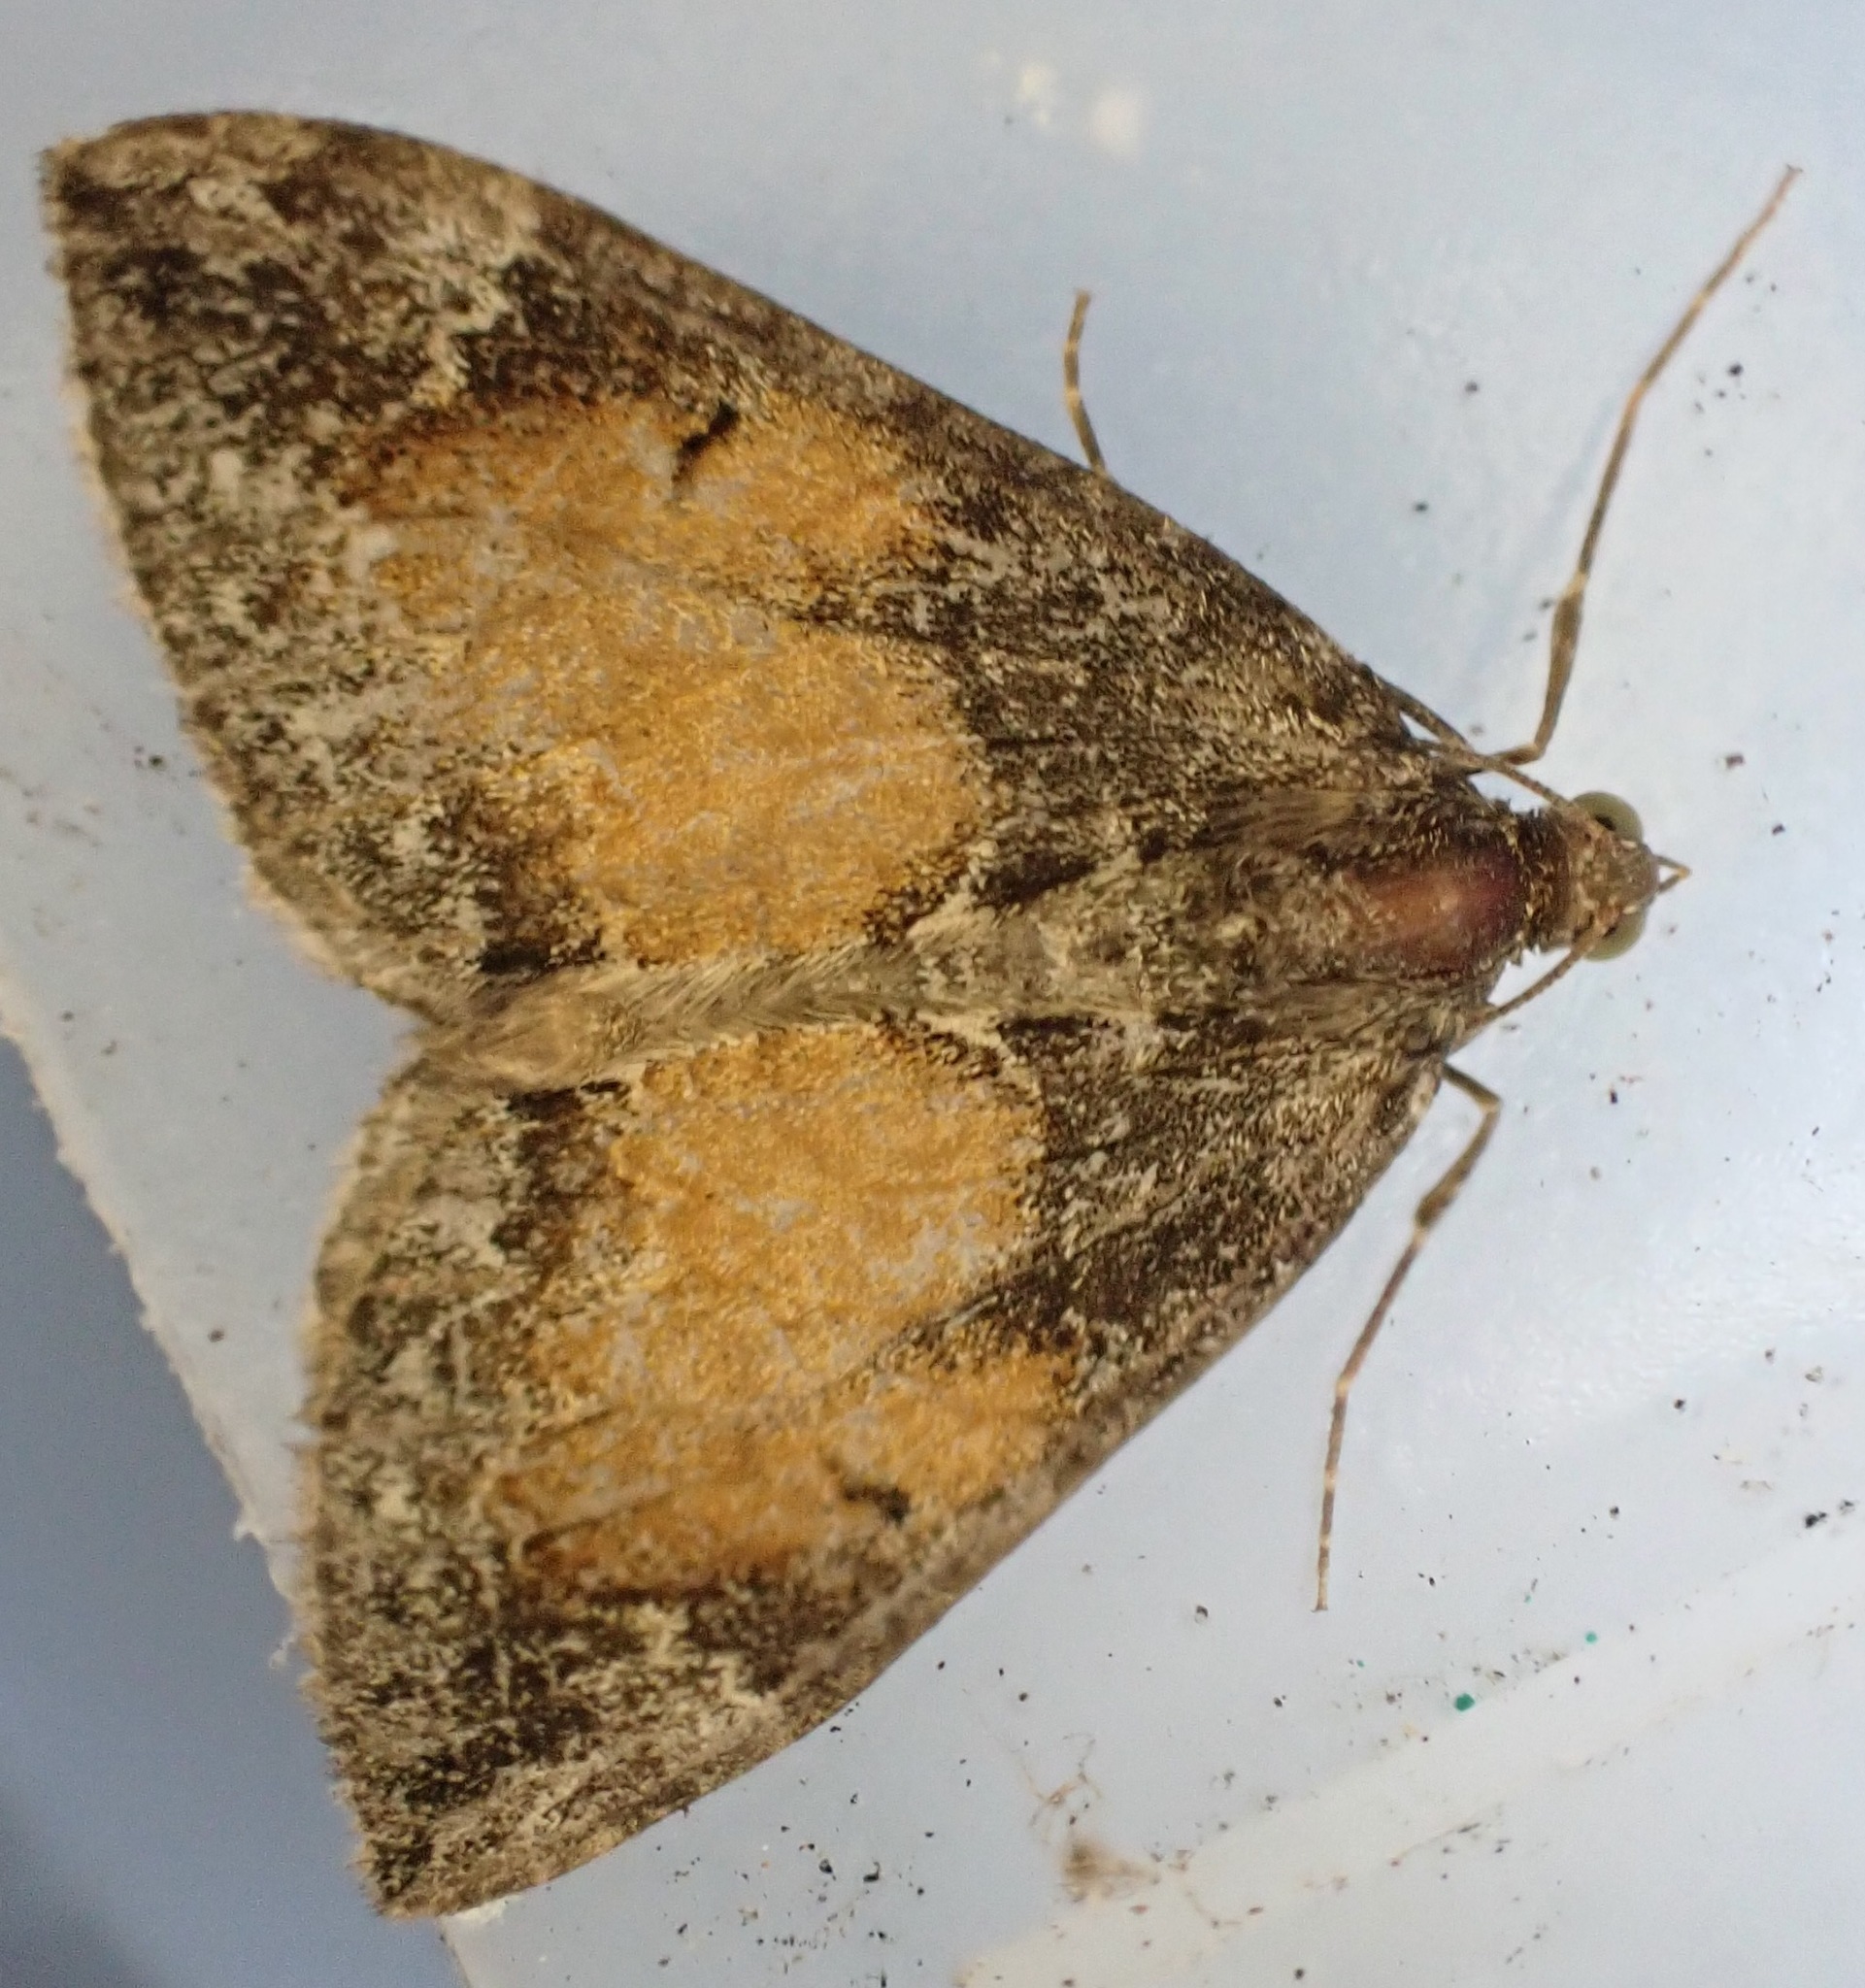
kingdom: Animalia
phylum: Arthropoda
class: Insecta
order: Lepidoptera
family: Geometridae
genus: Dysstroma
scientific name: Dysstroma truncata
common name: Common marbled carpet
